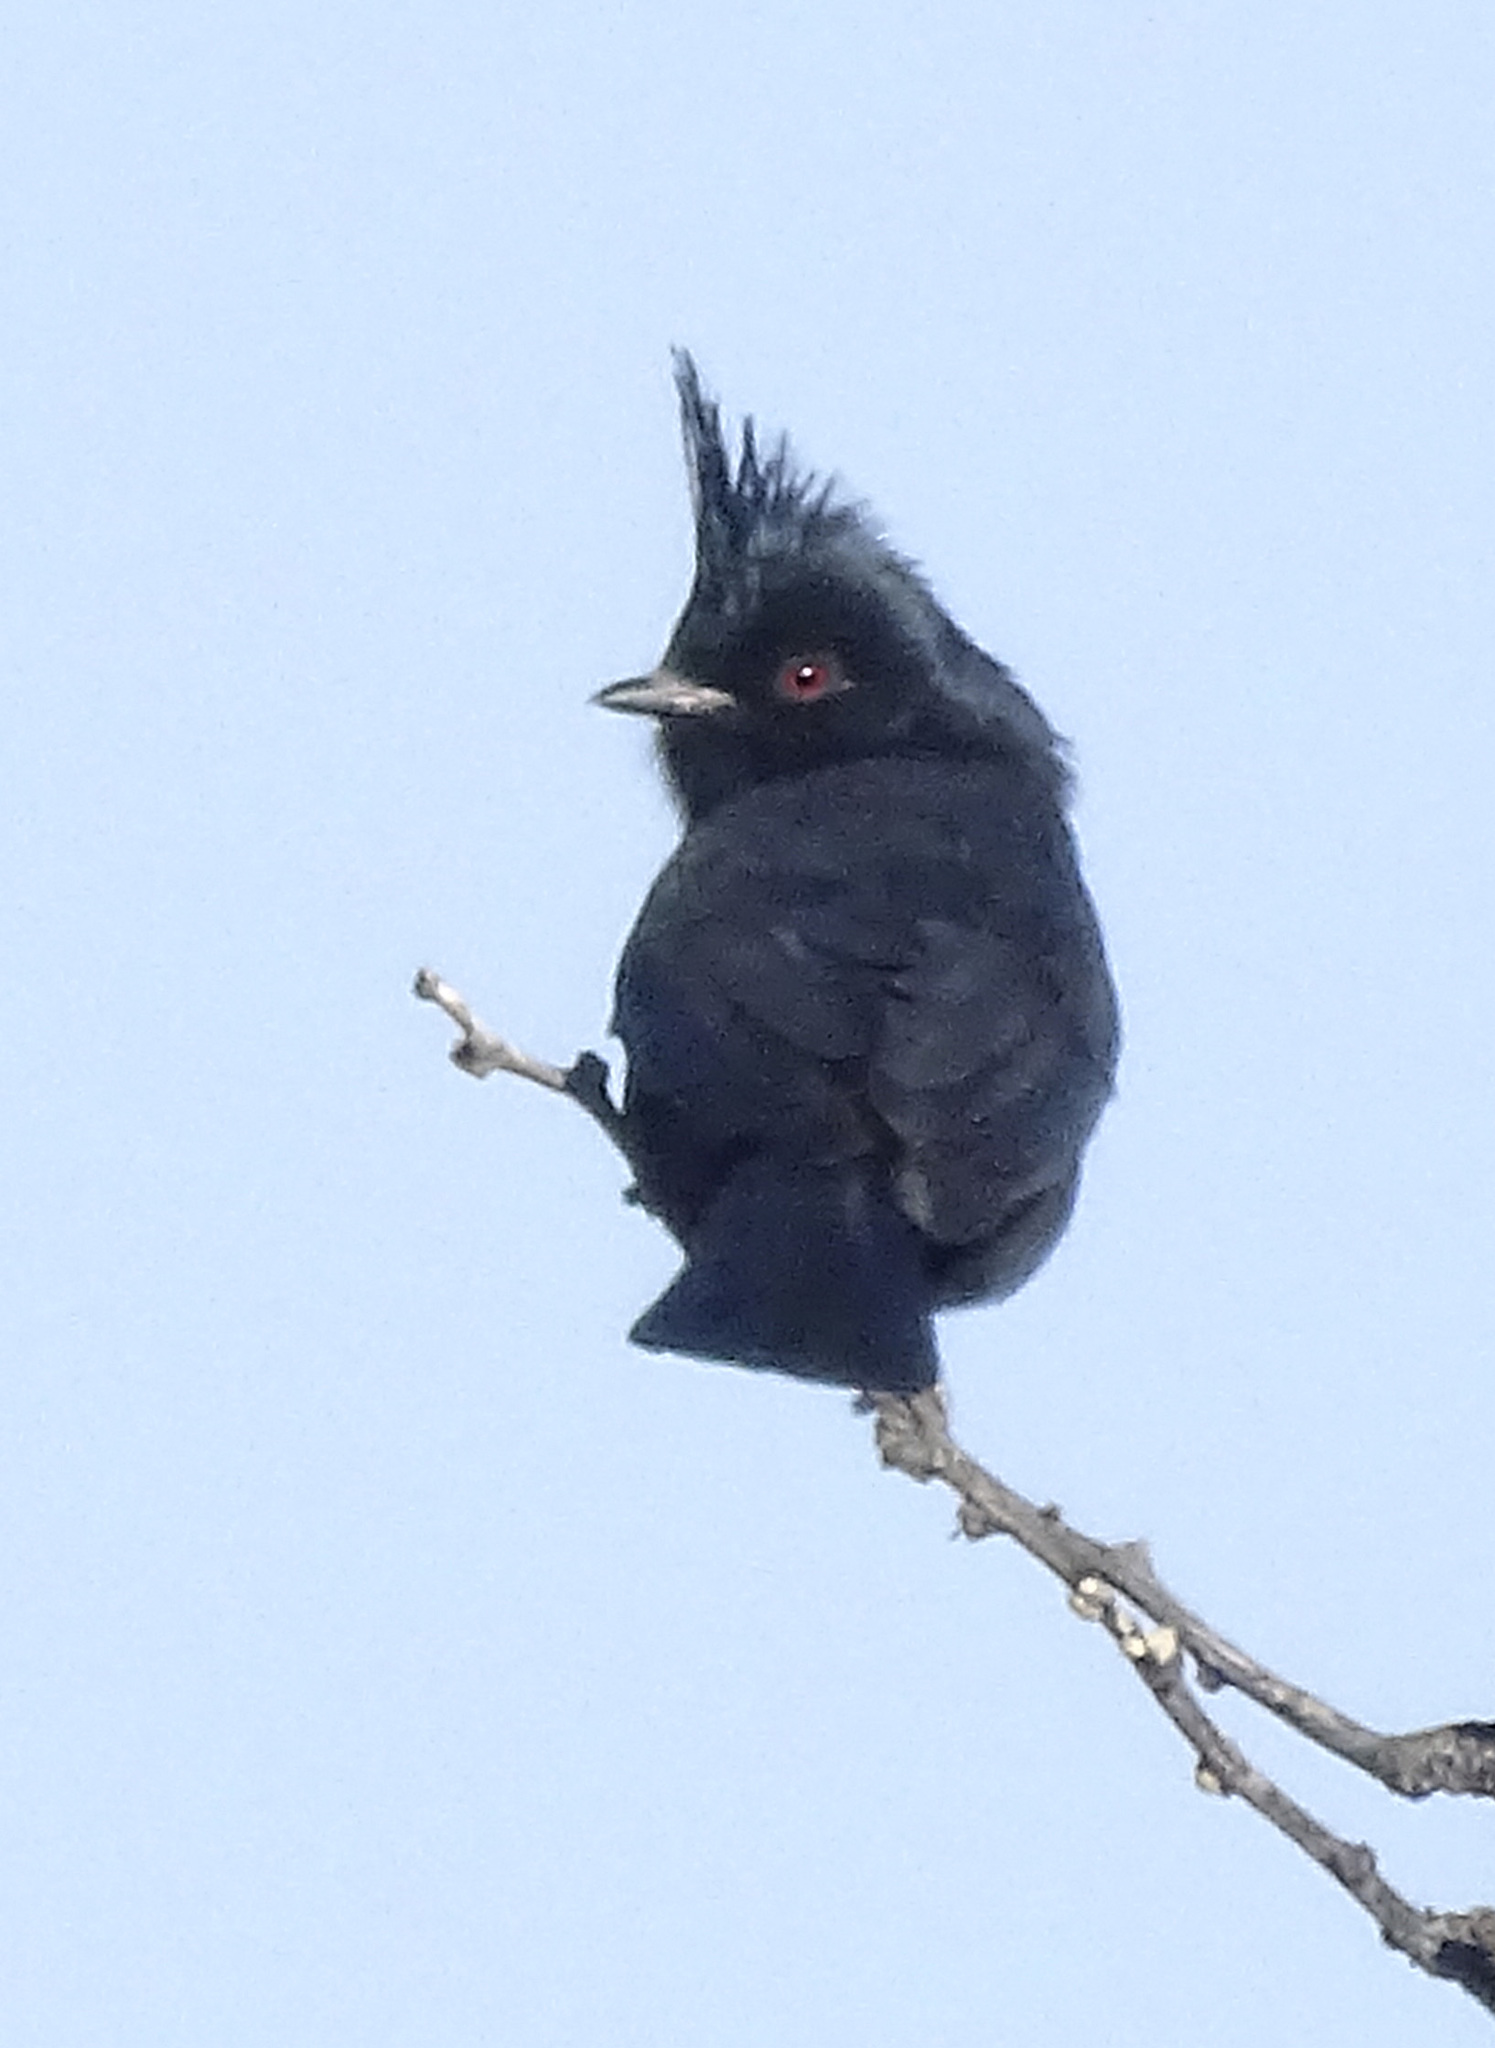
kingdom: Animalia
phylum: Chordata
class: Aves
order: Passeriformes
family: Ptilogonatidae
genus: Phainopepla
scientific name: Phainopepla nitens
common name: Phainopepla
